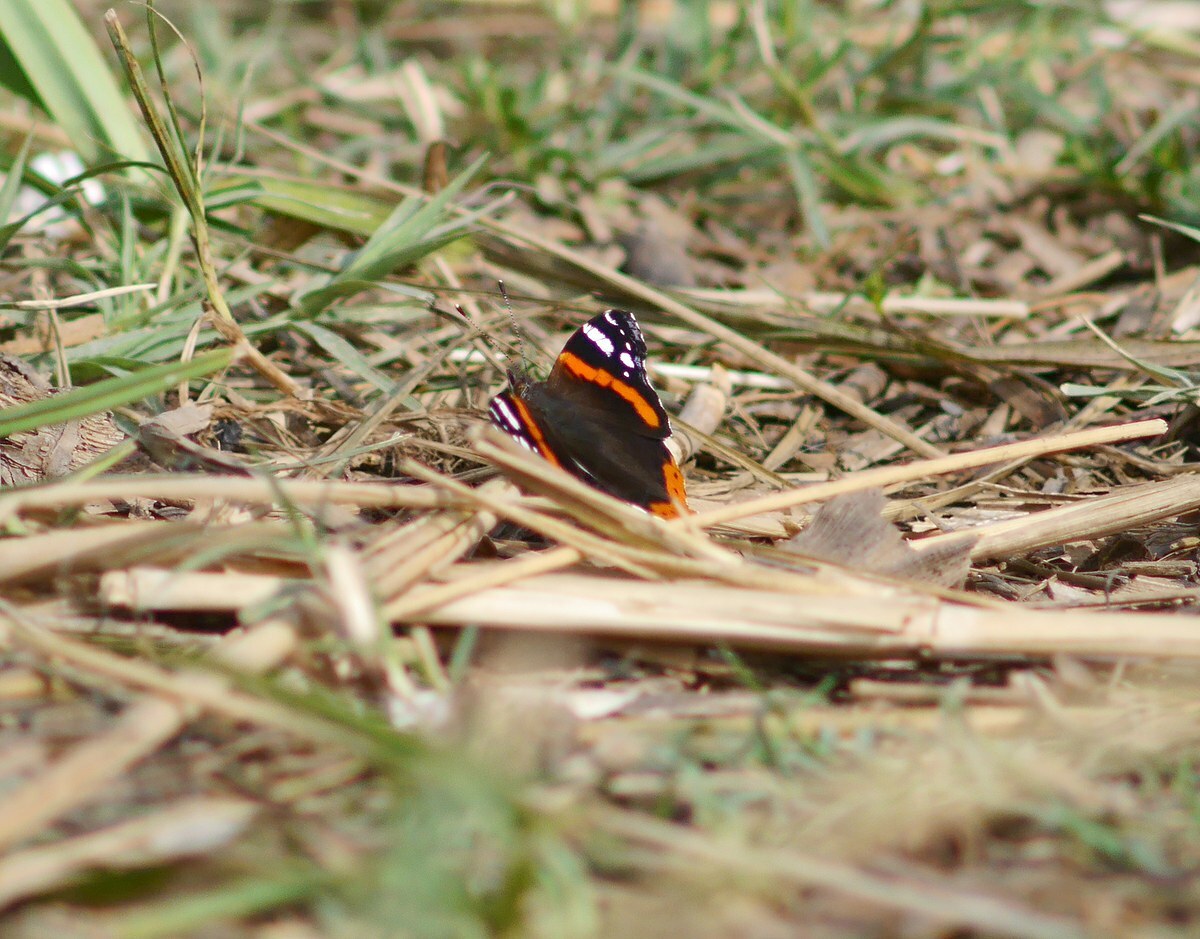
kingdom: Animalia
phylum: Arthropoda
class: Insecta
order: Lepidoptera
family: Nymphalidae
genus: Vanessa
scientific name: Vanessa atalanta
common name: Red admiral
